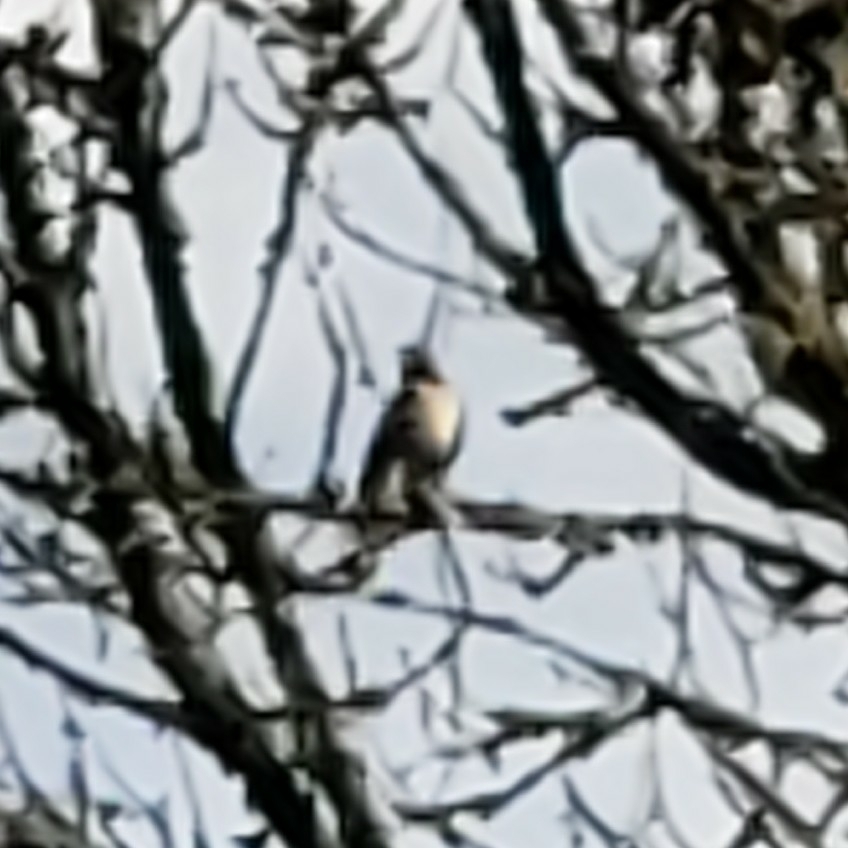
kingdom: Animalia
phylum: Chordata
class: Aves
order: Accipitriformes
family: Accipitridae
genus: Buteo
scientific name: Buteo jamaicensis
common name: Red-tailed hawk
